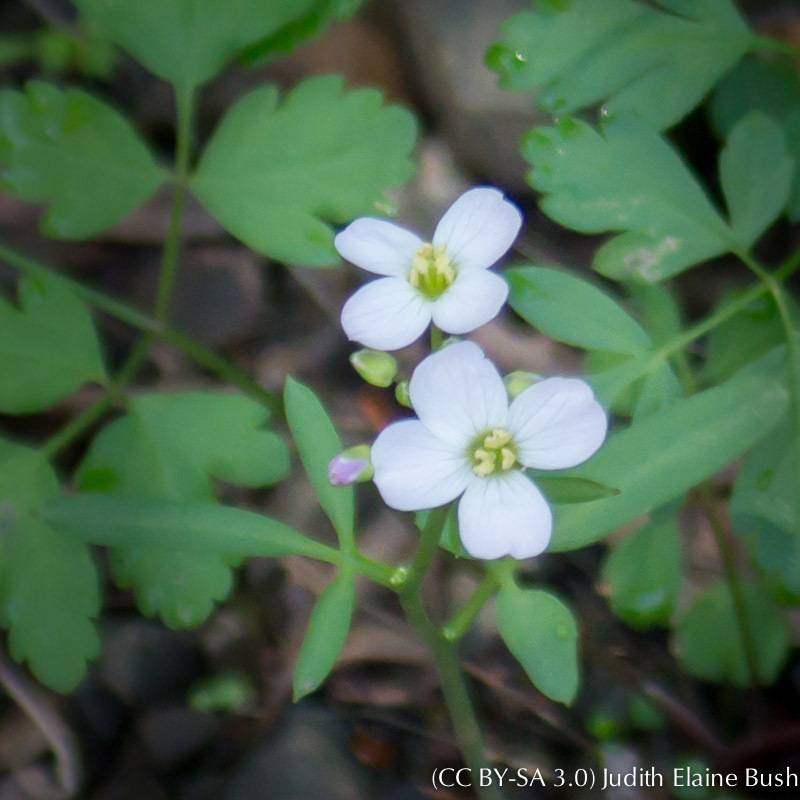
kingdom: Plantae
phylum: Tracheophyta
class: Magnoliopsida
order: Brassicales
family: Brassicaceae
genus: Cardamine
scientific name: Cardamine californica
